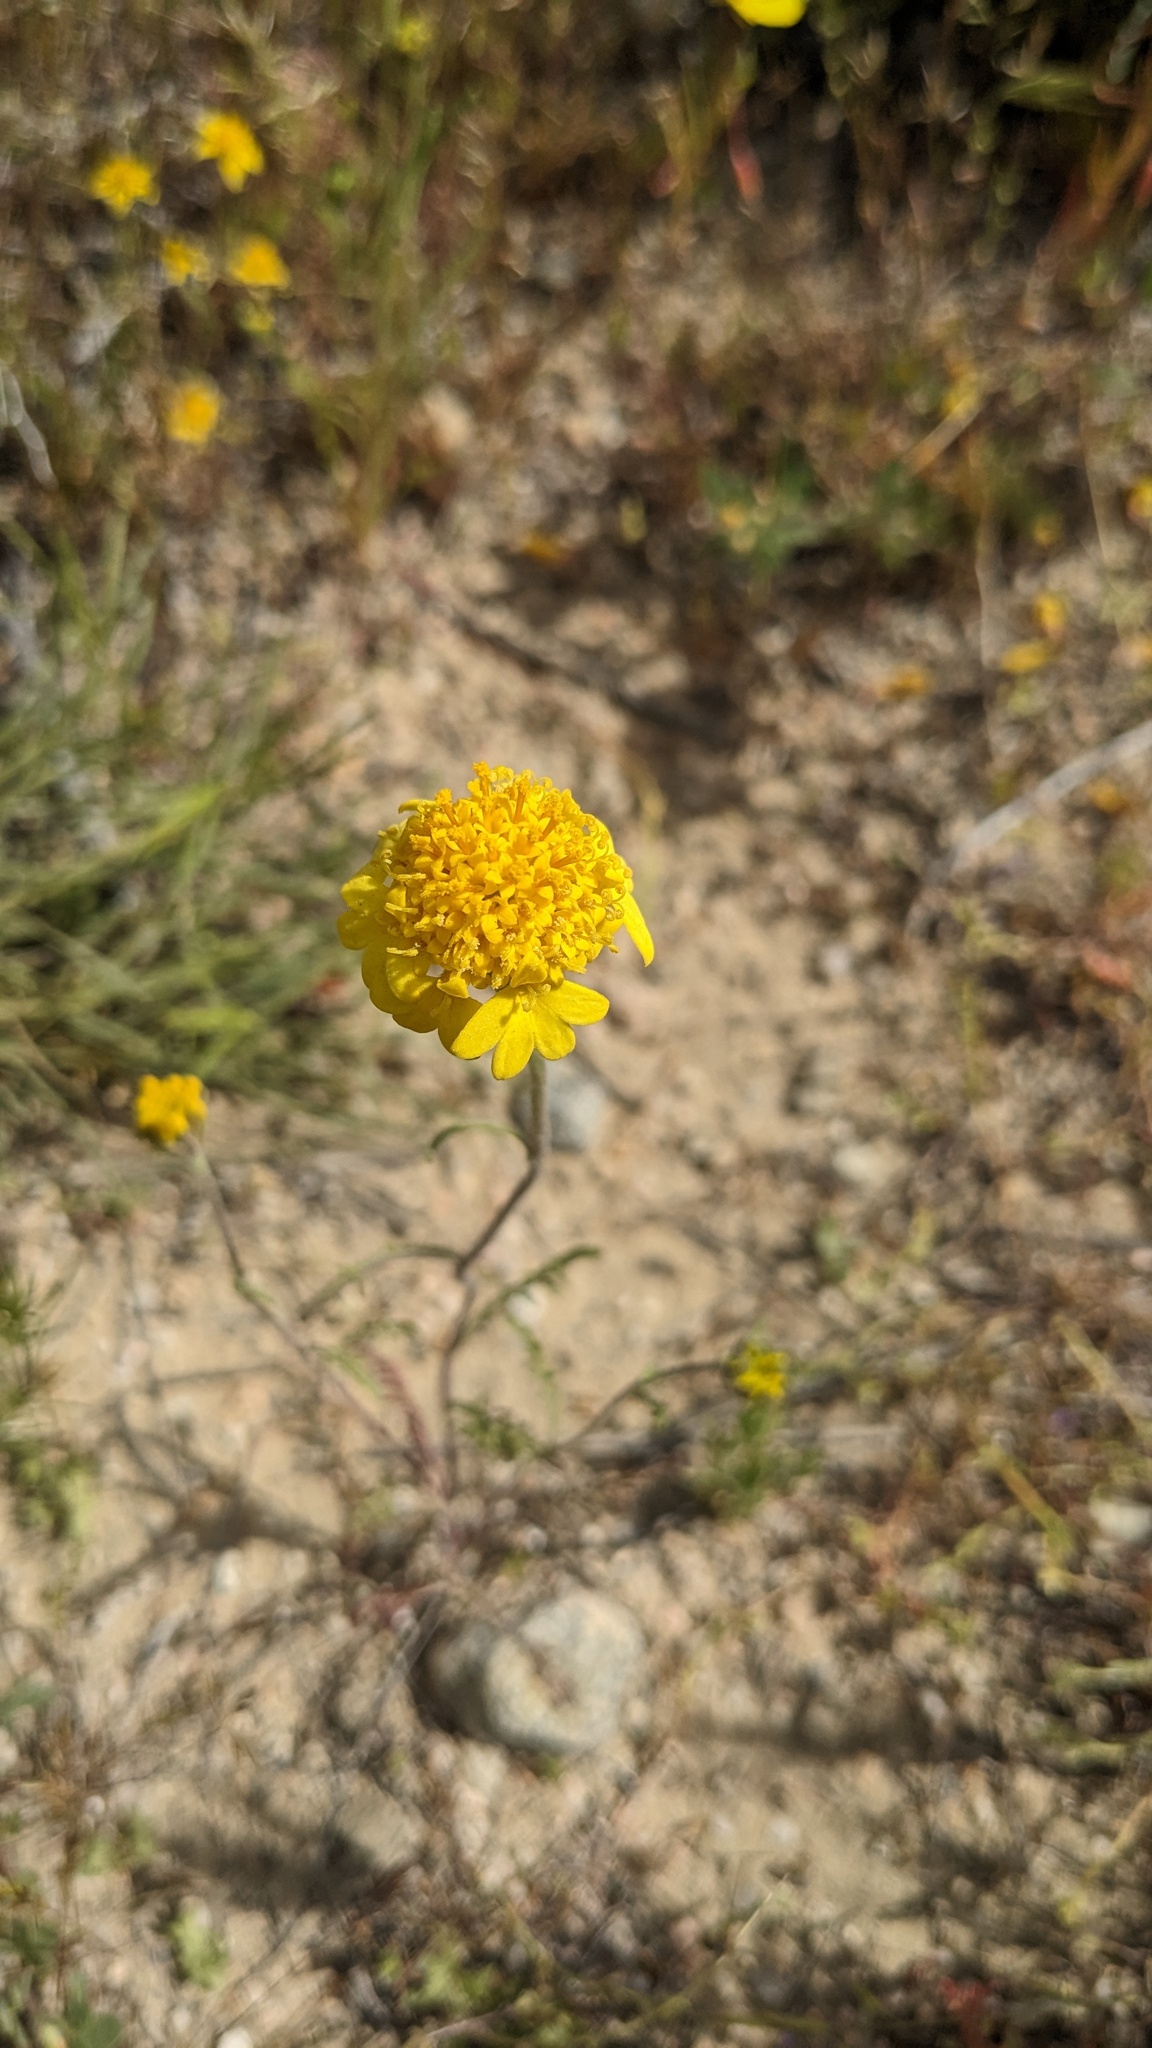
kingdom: Plantae
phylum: Tracheophyta
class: Magnoliopsida
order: Asterales
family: Asteraceae
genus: Chaenactis
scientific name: Chaenactis glabriuscula
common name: Yellow pincushion
